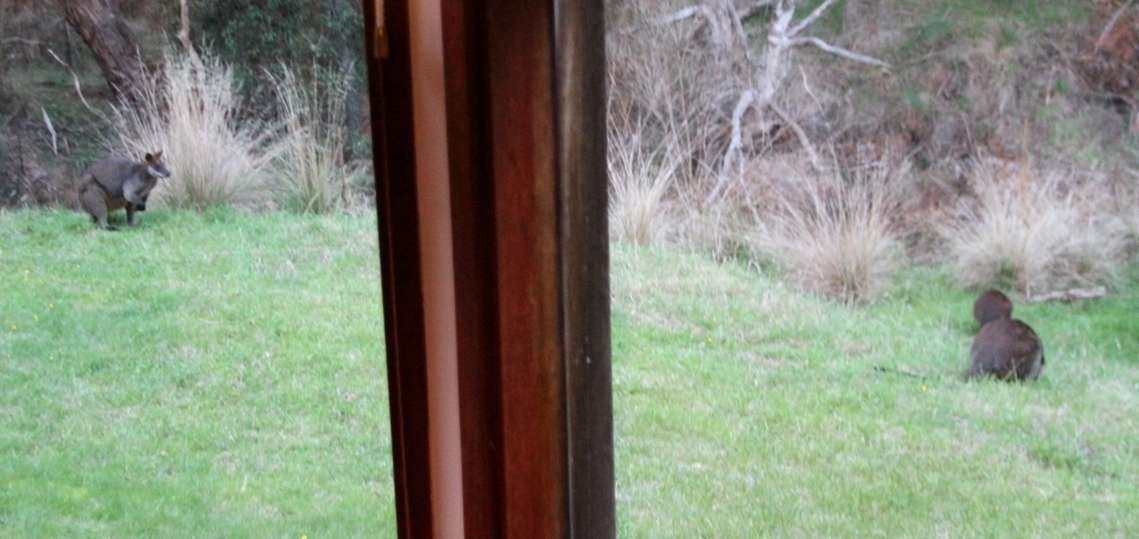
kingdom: Animalia
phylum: Chordata
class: Mammalia
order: Diprotodontia
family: Macropodidae
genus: Wallabia
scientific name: Wallabia bicolor
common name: Swamp wallaby
